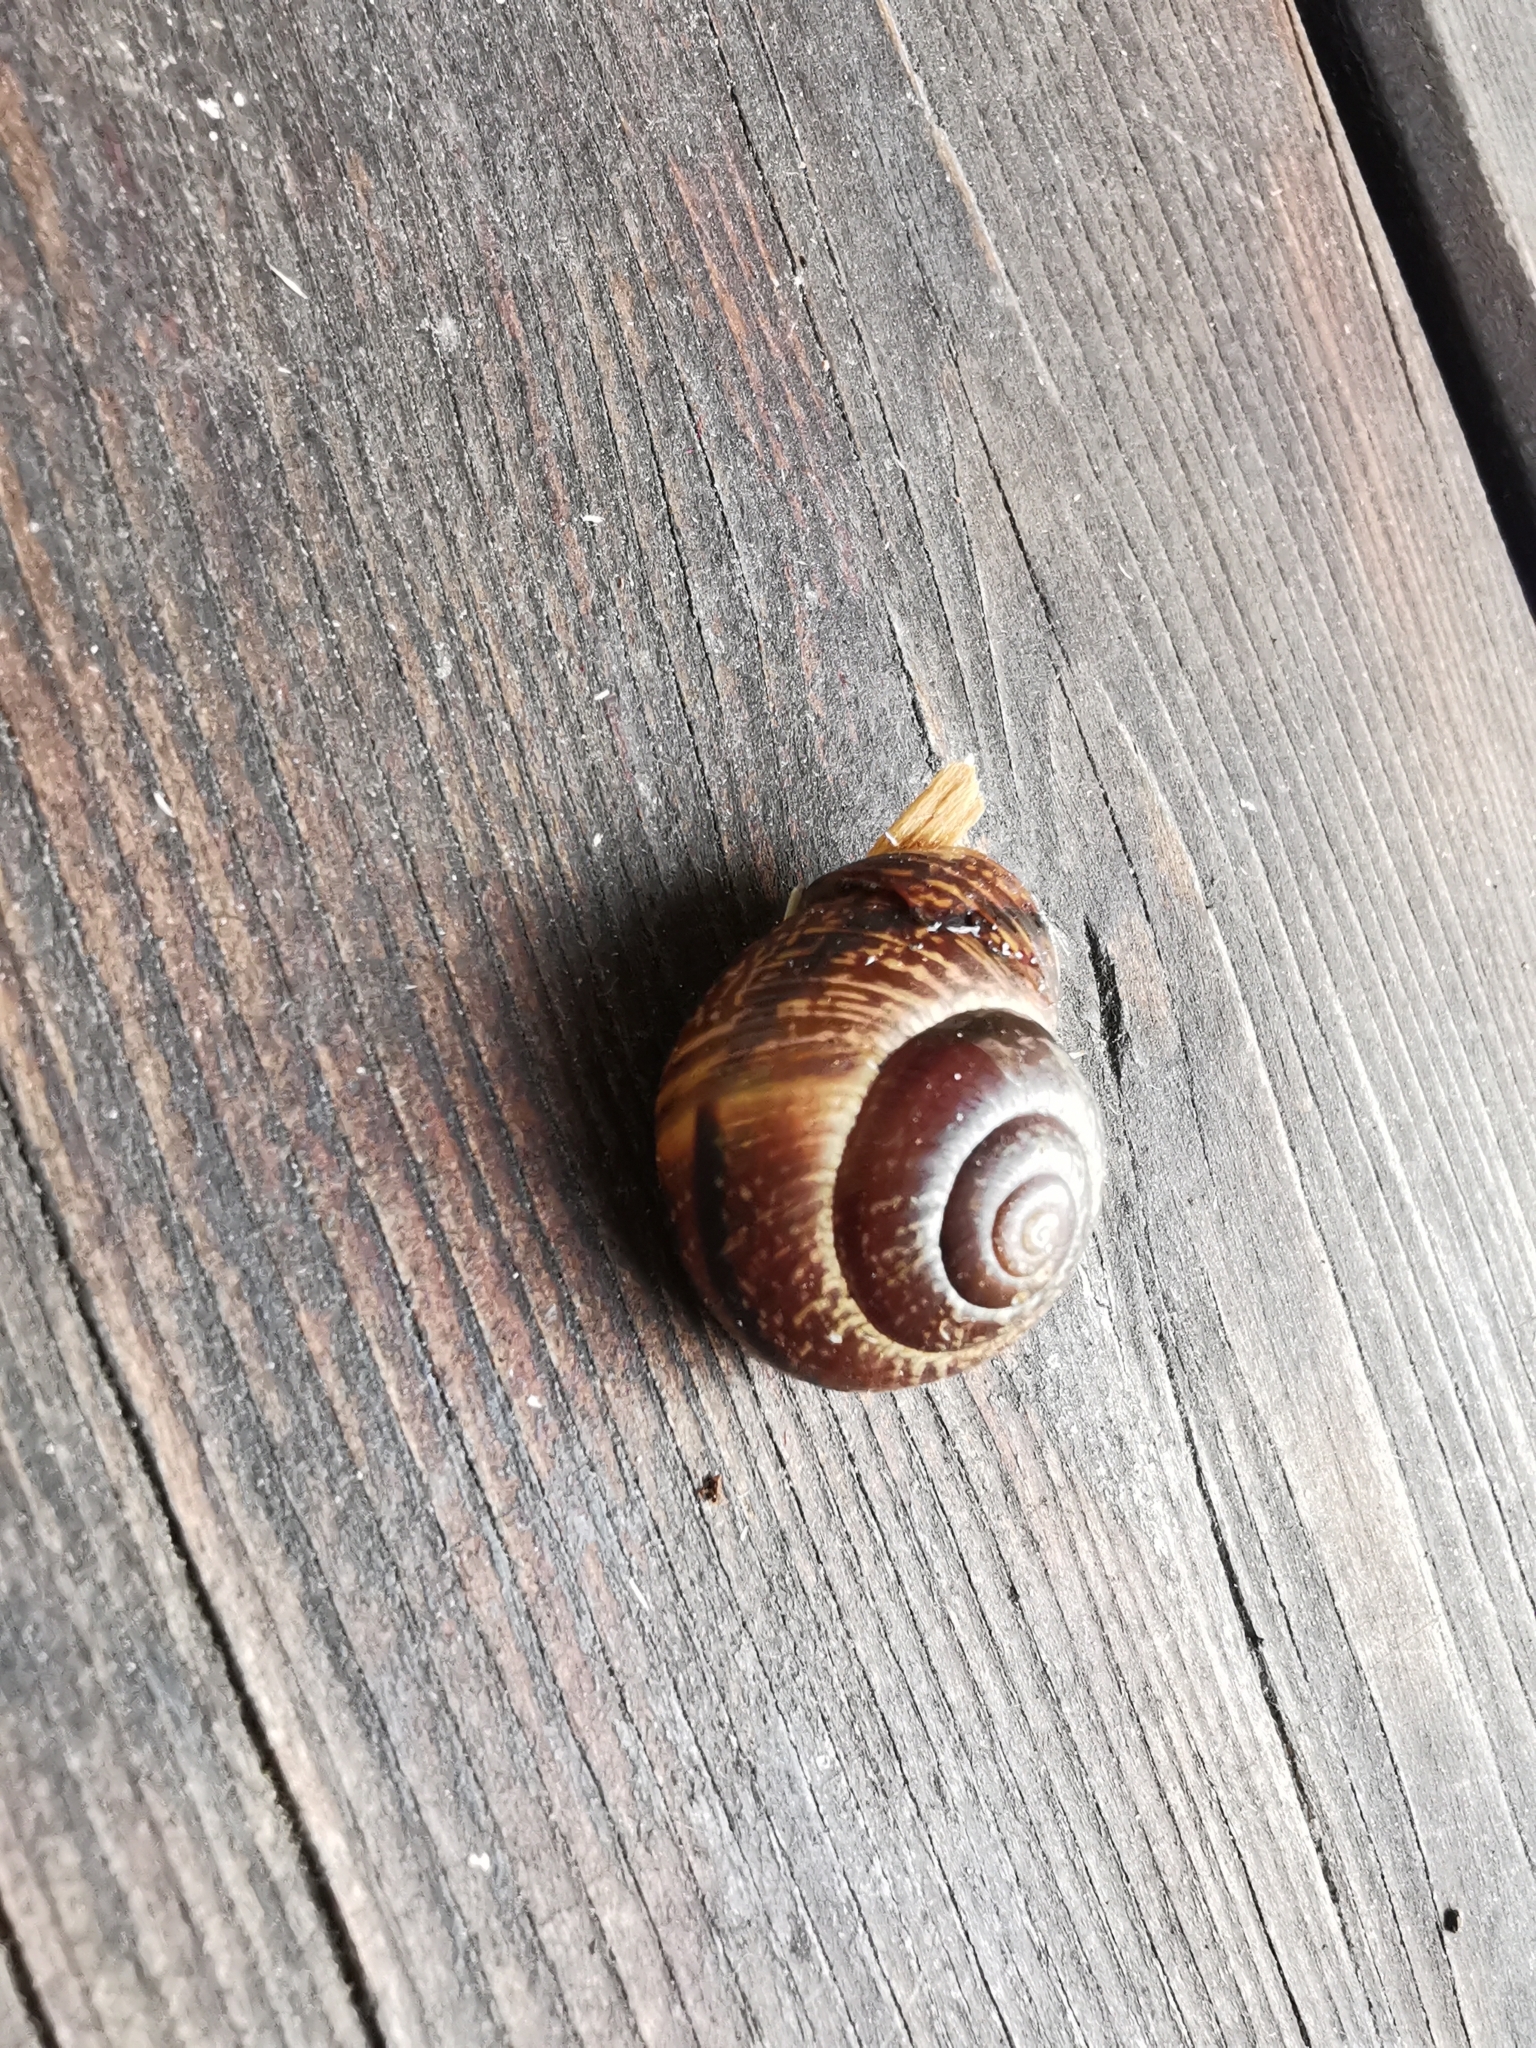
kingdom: Animalia
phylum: Mollusca
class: Gastropoda
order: Stylommatophora
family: Helicidae
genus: Arianta
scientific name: Arianta arbustorum
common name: Copse snail
